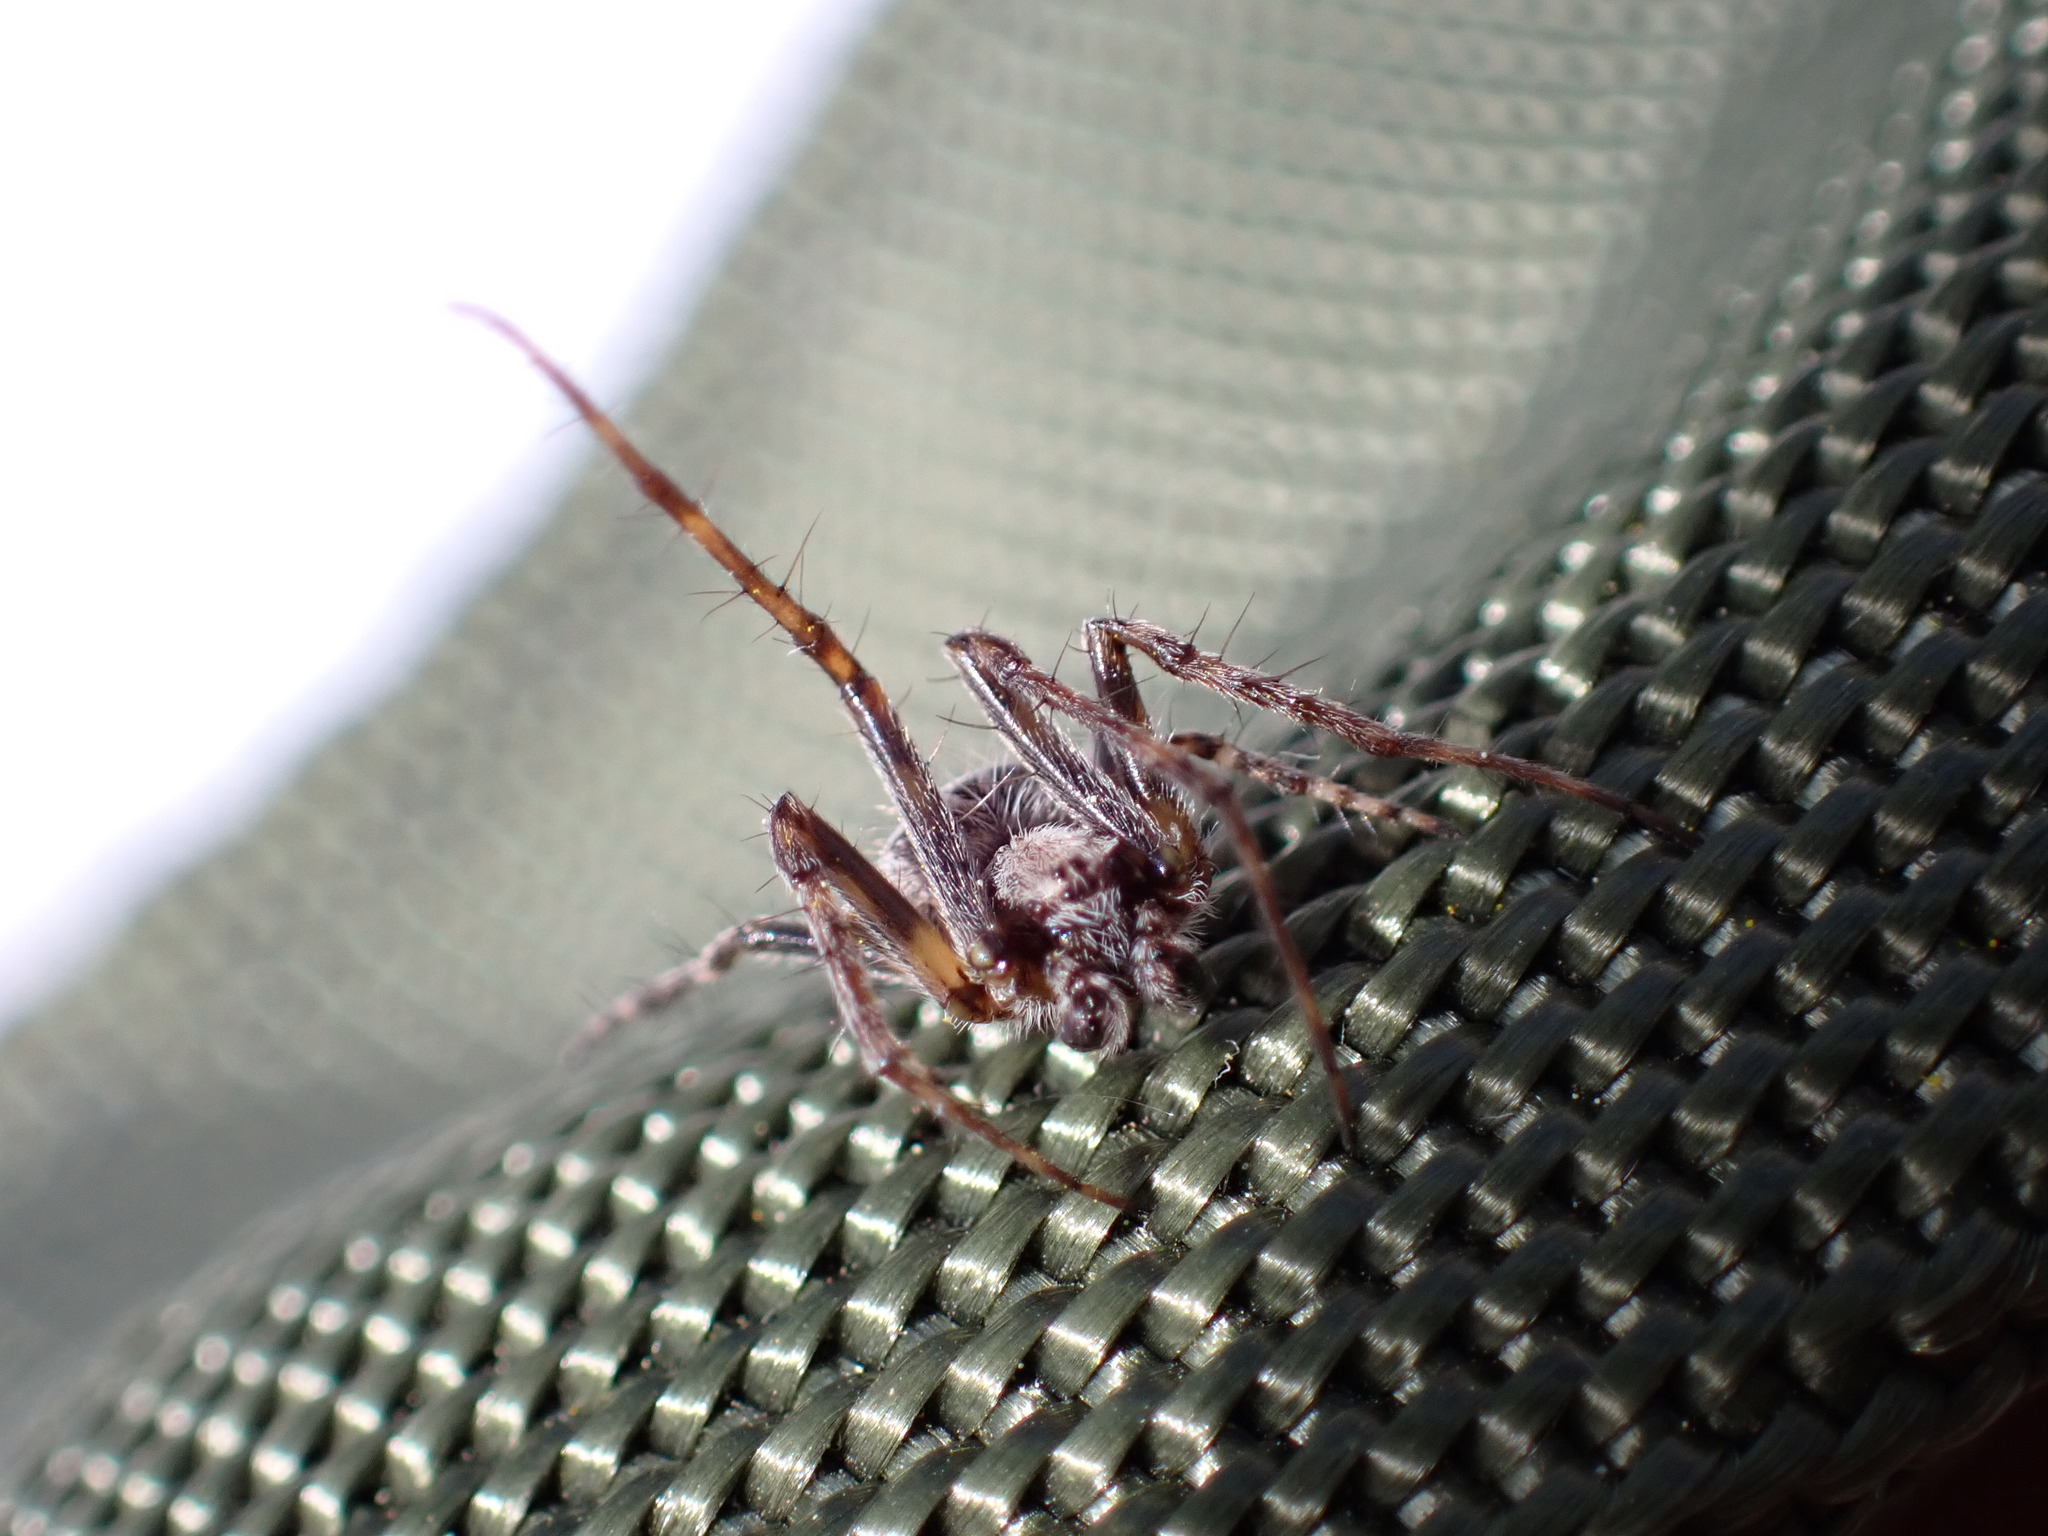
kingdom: Animalia
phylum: Arthropoda
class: Arachnida
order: Araneae
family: Araneidae
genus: Agalenatea
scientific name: Agalenatea redii
